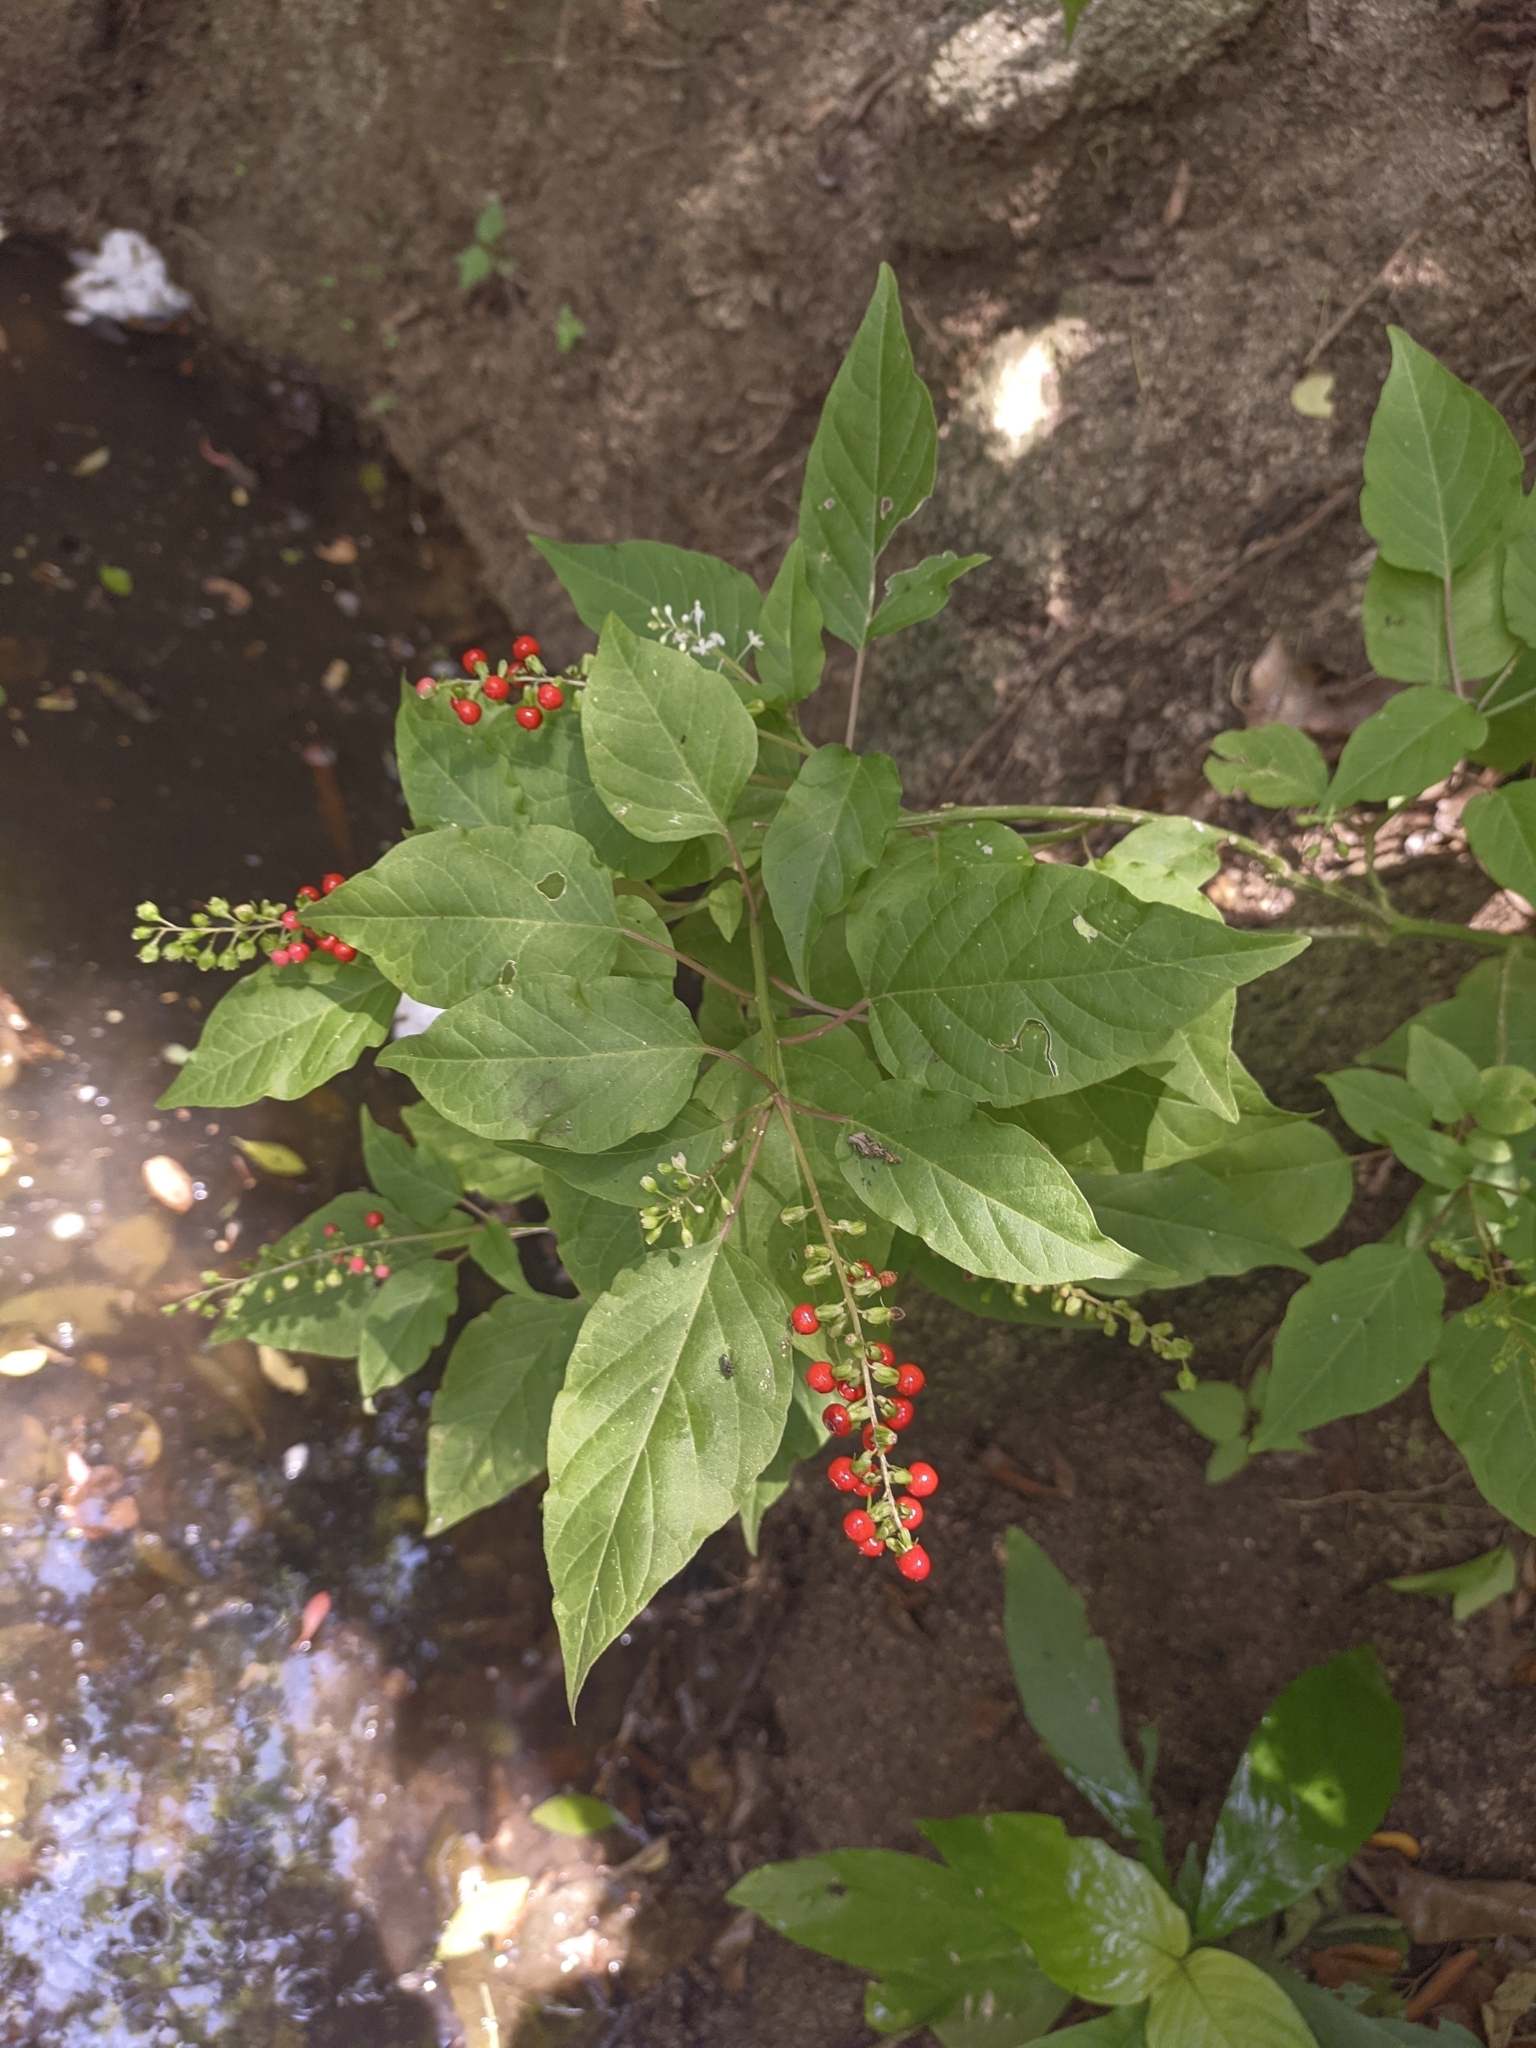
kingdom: Plantae
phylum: Tracheophyta
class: Magnoliopsida
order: Caryophyllales
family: Phytolaccaceae
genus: Rivina
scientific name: Rivina humilis
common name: Rougeplant
